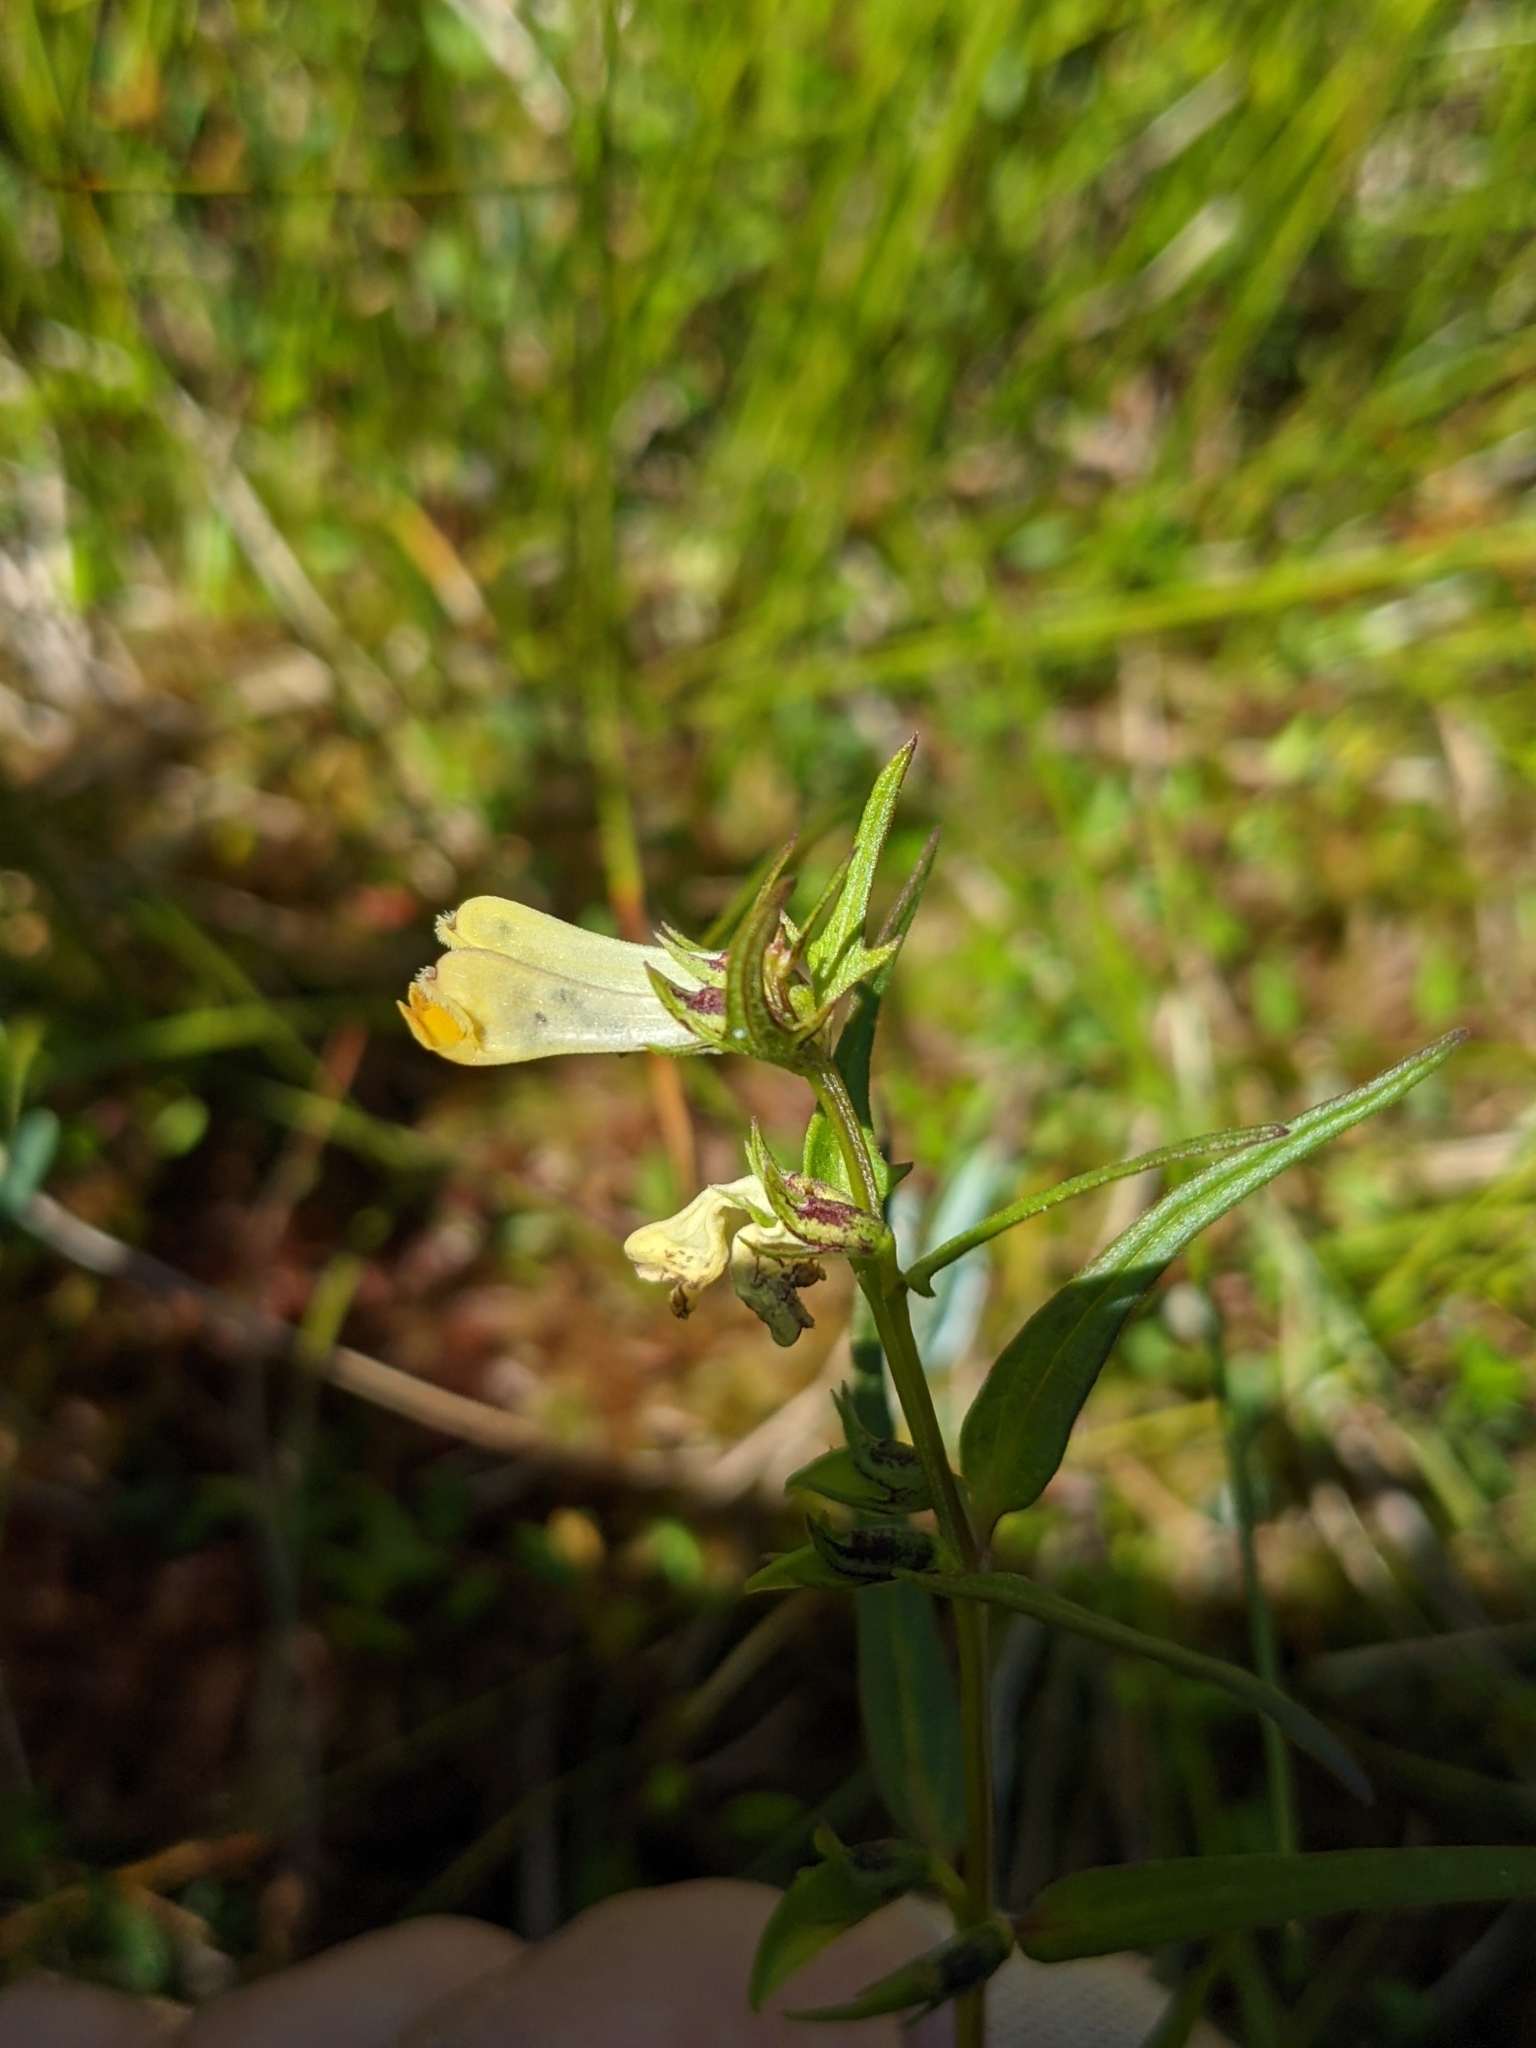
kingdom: Plantae
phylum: Tracheophyta
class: Magnoliopsida
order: Lamiales
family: Orobanchaceae
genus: Melampyrum
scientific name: Melampyrum pratense
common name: Common cow-wheat
